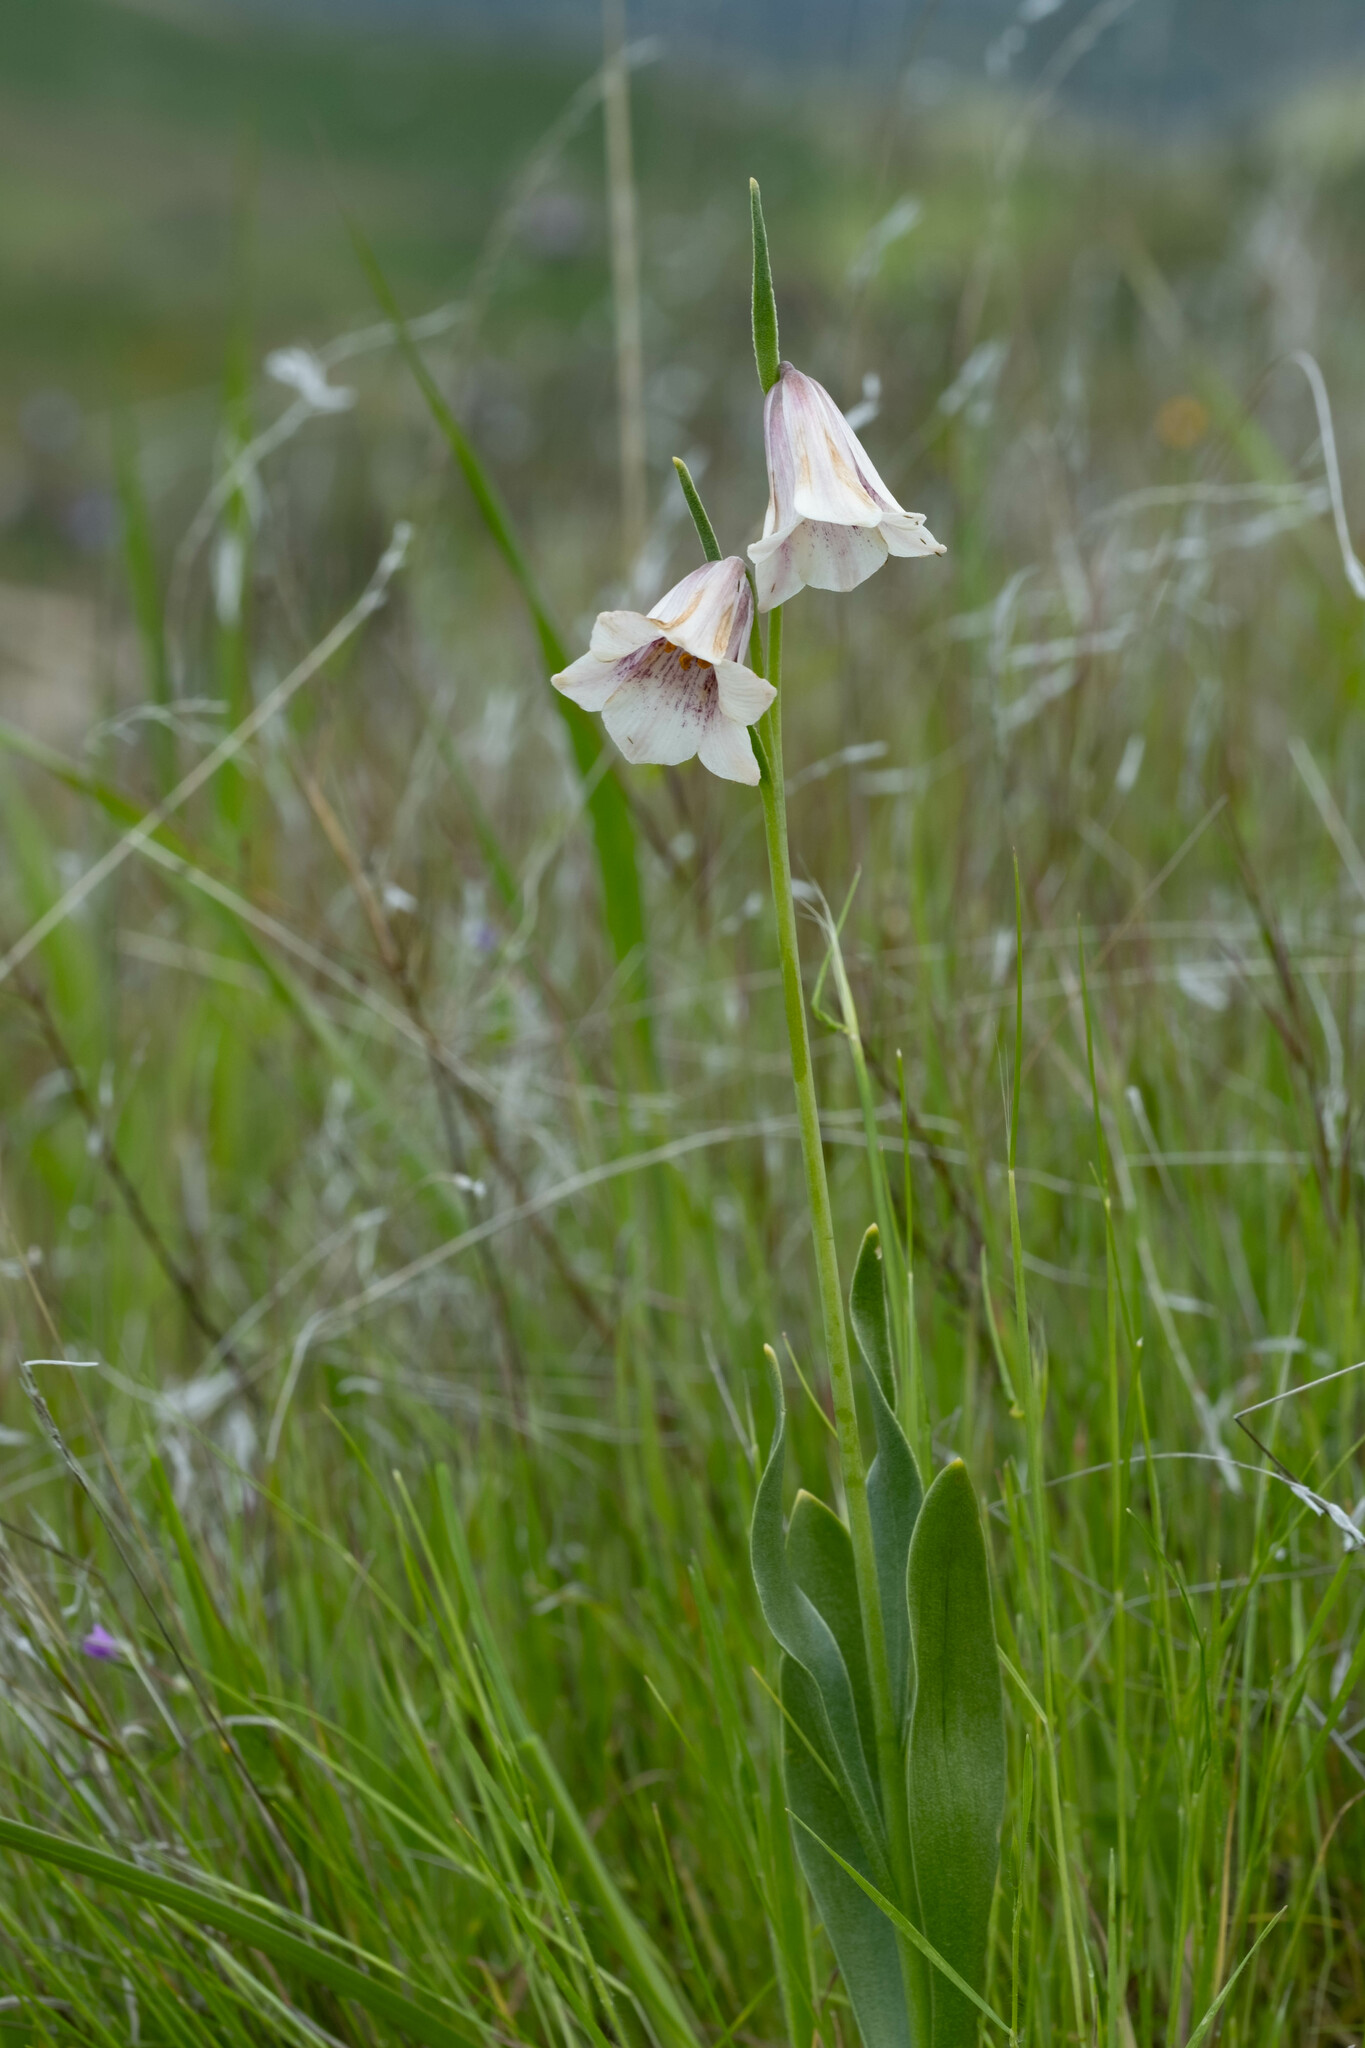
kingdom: Plantae
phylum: Tracheophyta
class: Liliopsida
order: Liliales
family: Liliaceae
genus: Fritillaria
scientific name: Fritillaria striata
